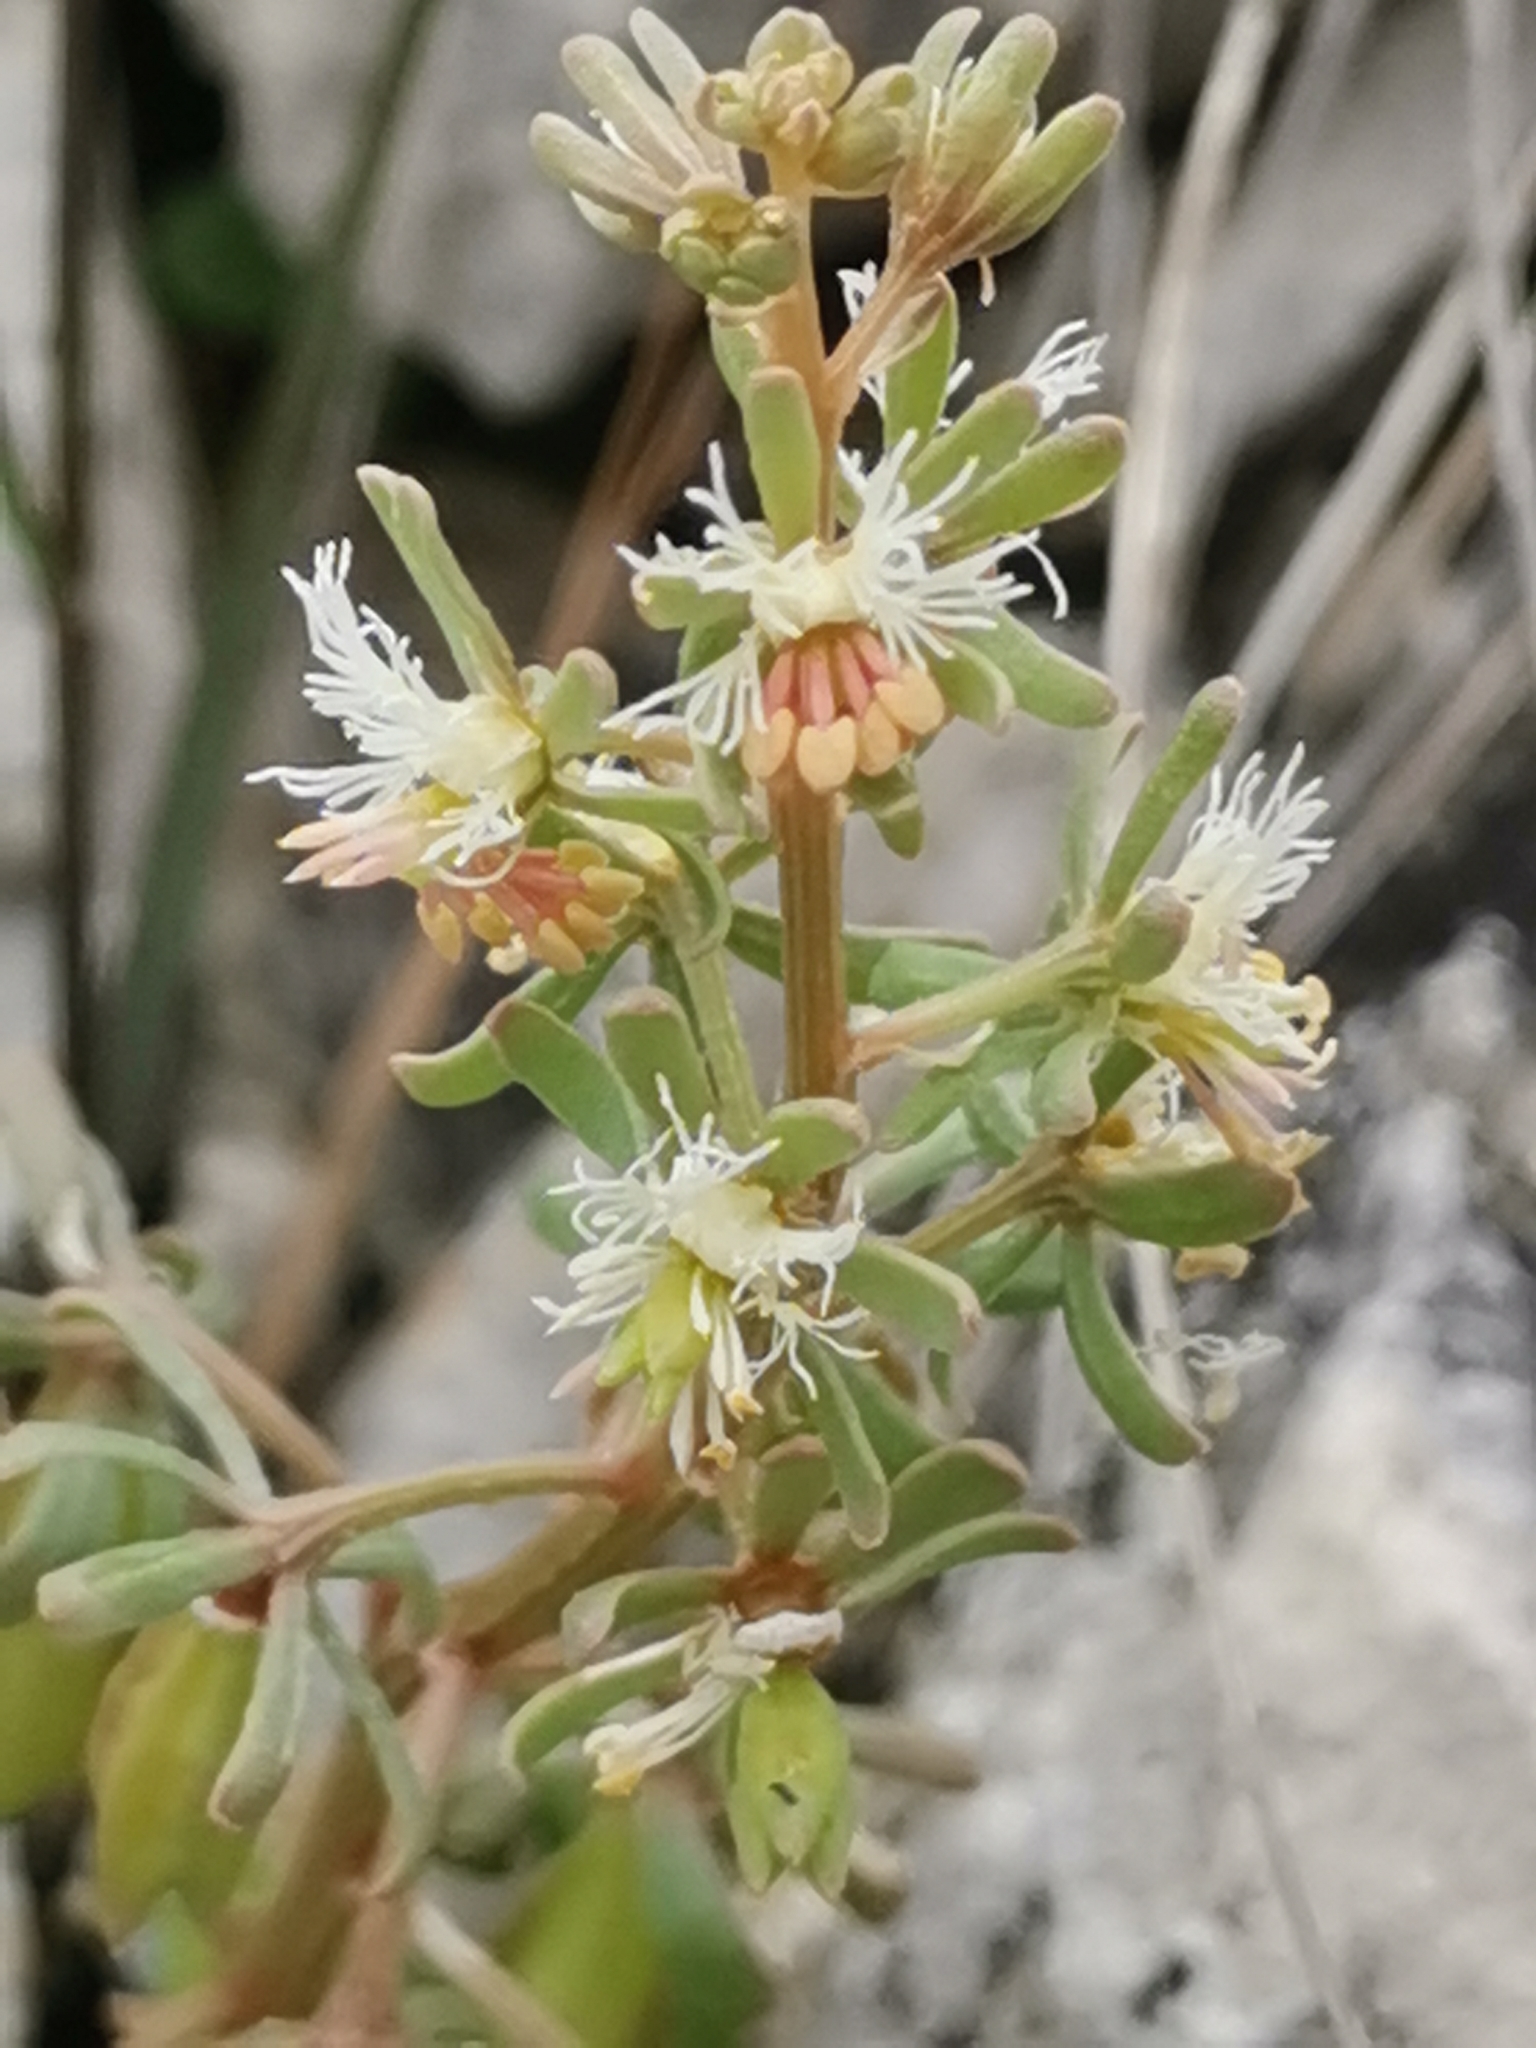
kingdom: Plantae
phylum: Tracheophyta
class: Magnoliopsida
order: Brassicales
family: Resedaceae
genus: Reseda
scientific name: Reseda phyteuma
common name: Corn mignonette
